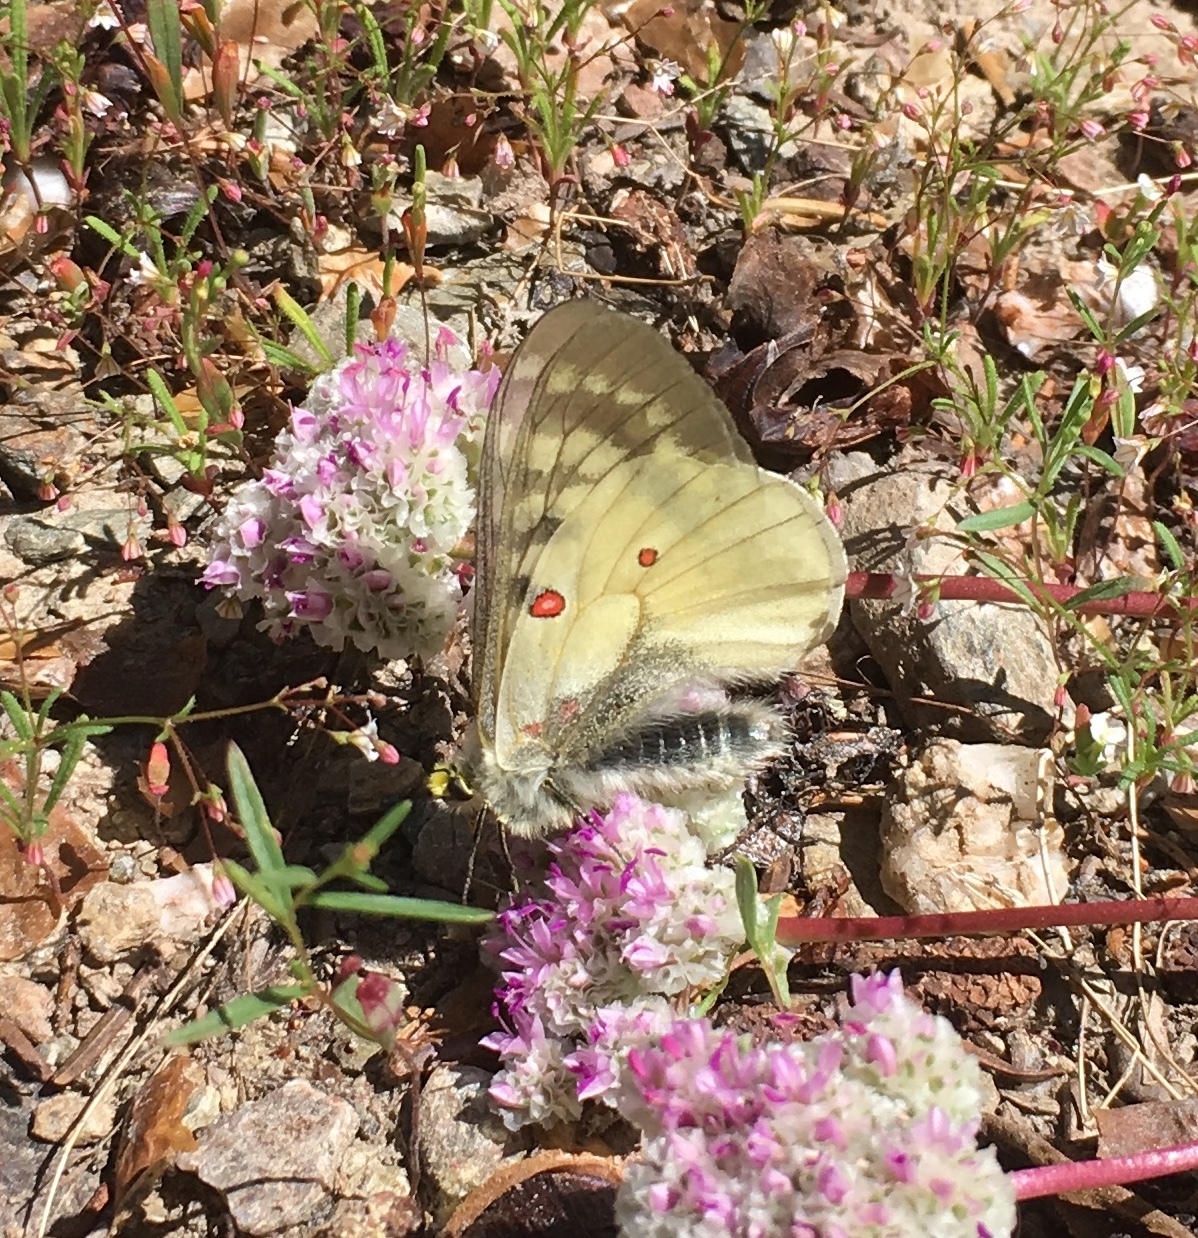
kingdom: Animalia
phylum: Arthropoda
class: Insecta
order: Lepidoptera
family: Papilionidae
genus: Parnassius
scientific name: Parnassius clodius
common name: American apollo
